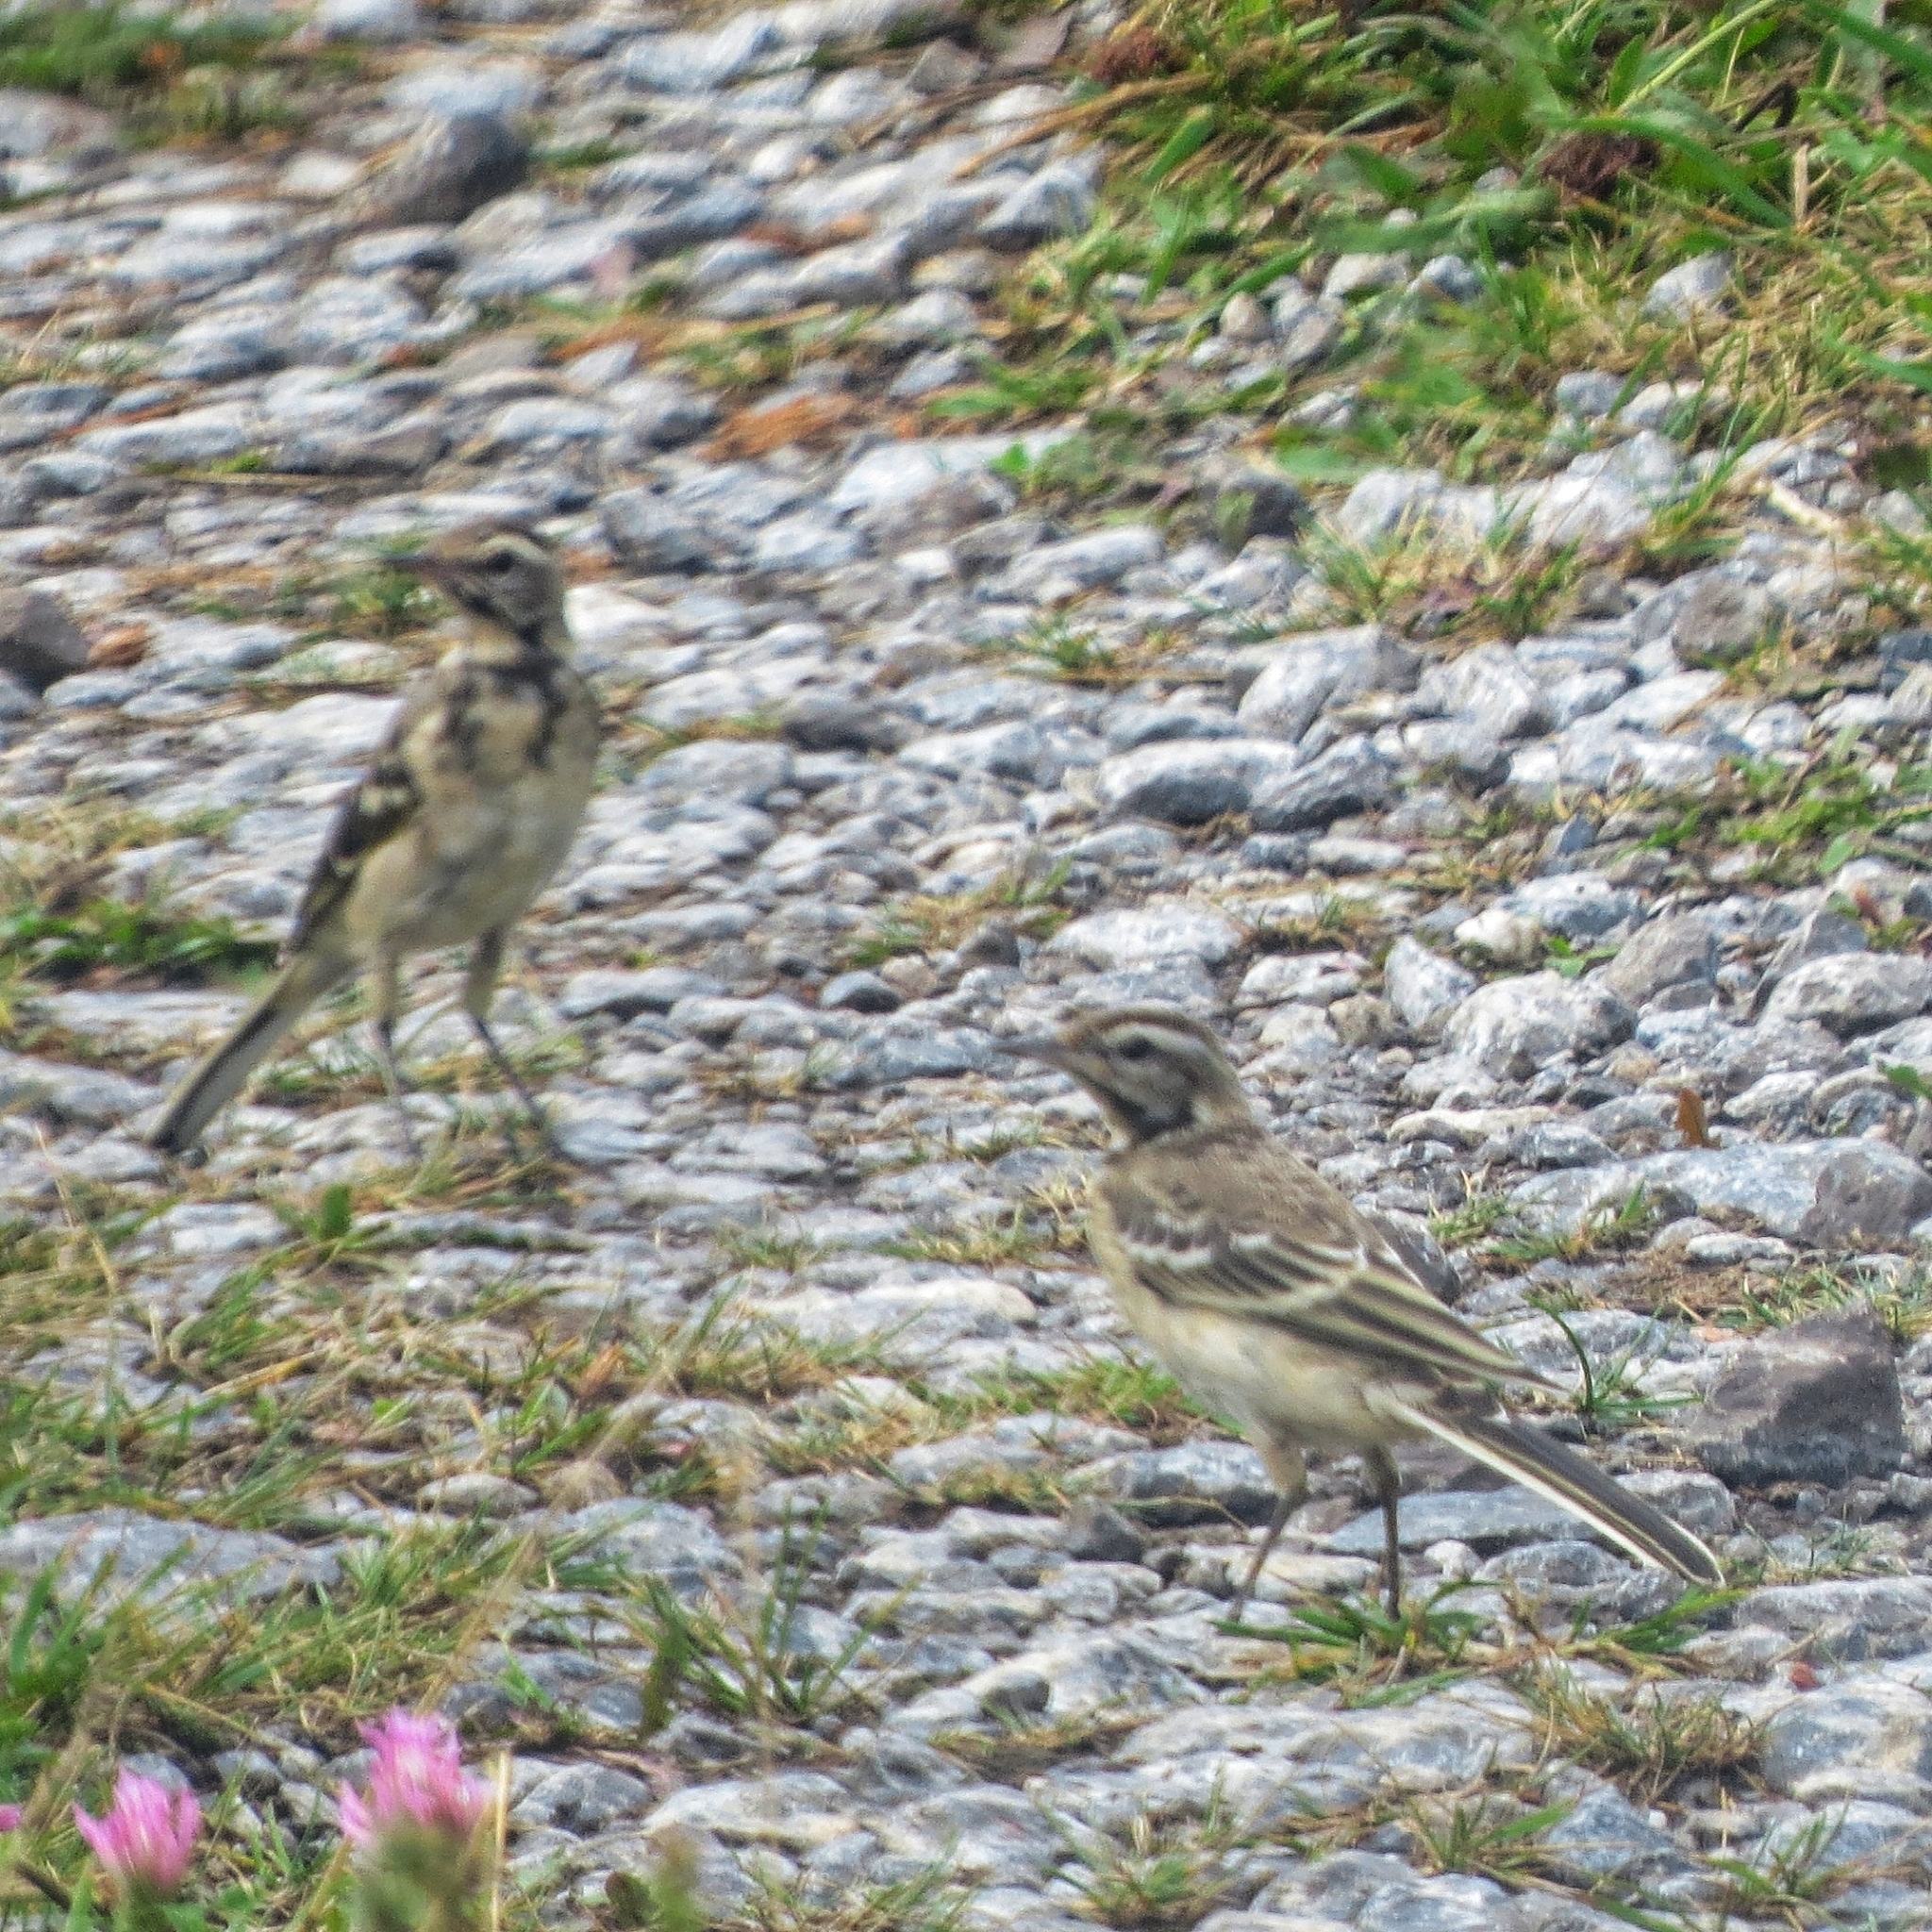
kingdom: Animalia
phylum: Chordata
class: Aves
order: Passeriformes
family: Motacillidae
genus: Motacilla
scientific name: Motacilla flava
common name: Western yellow wagtail
